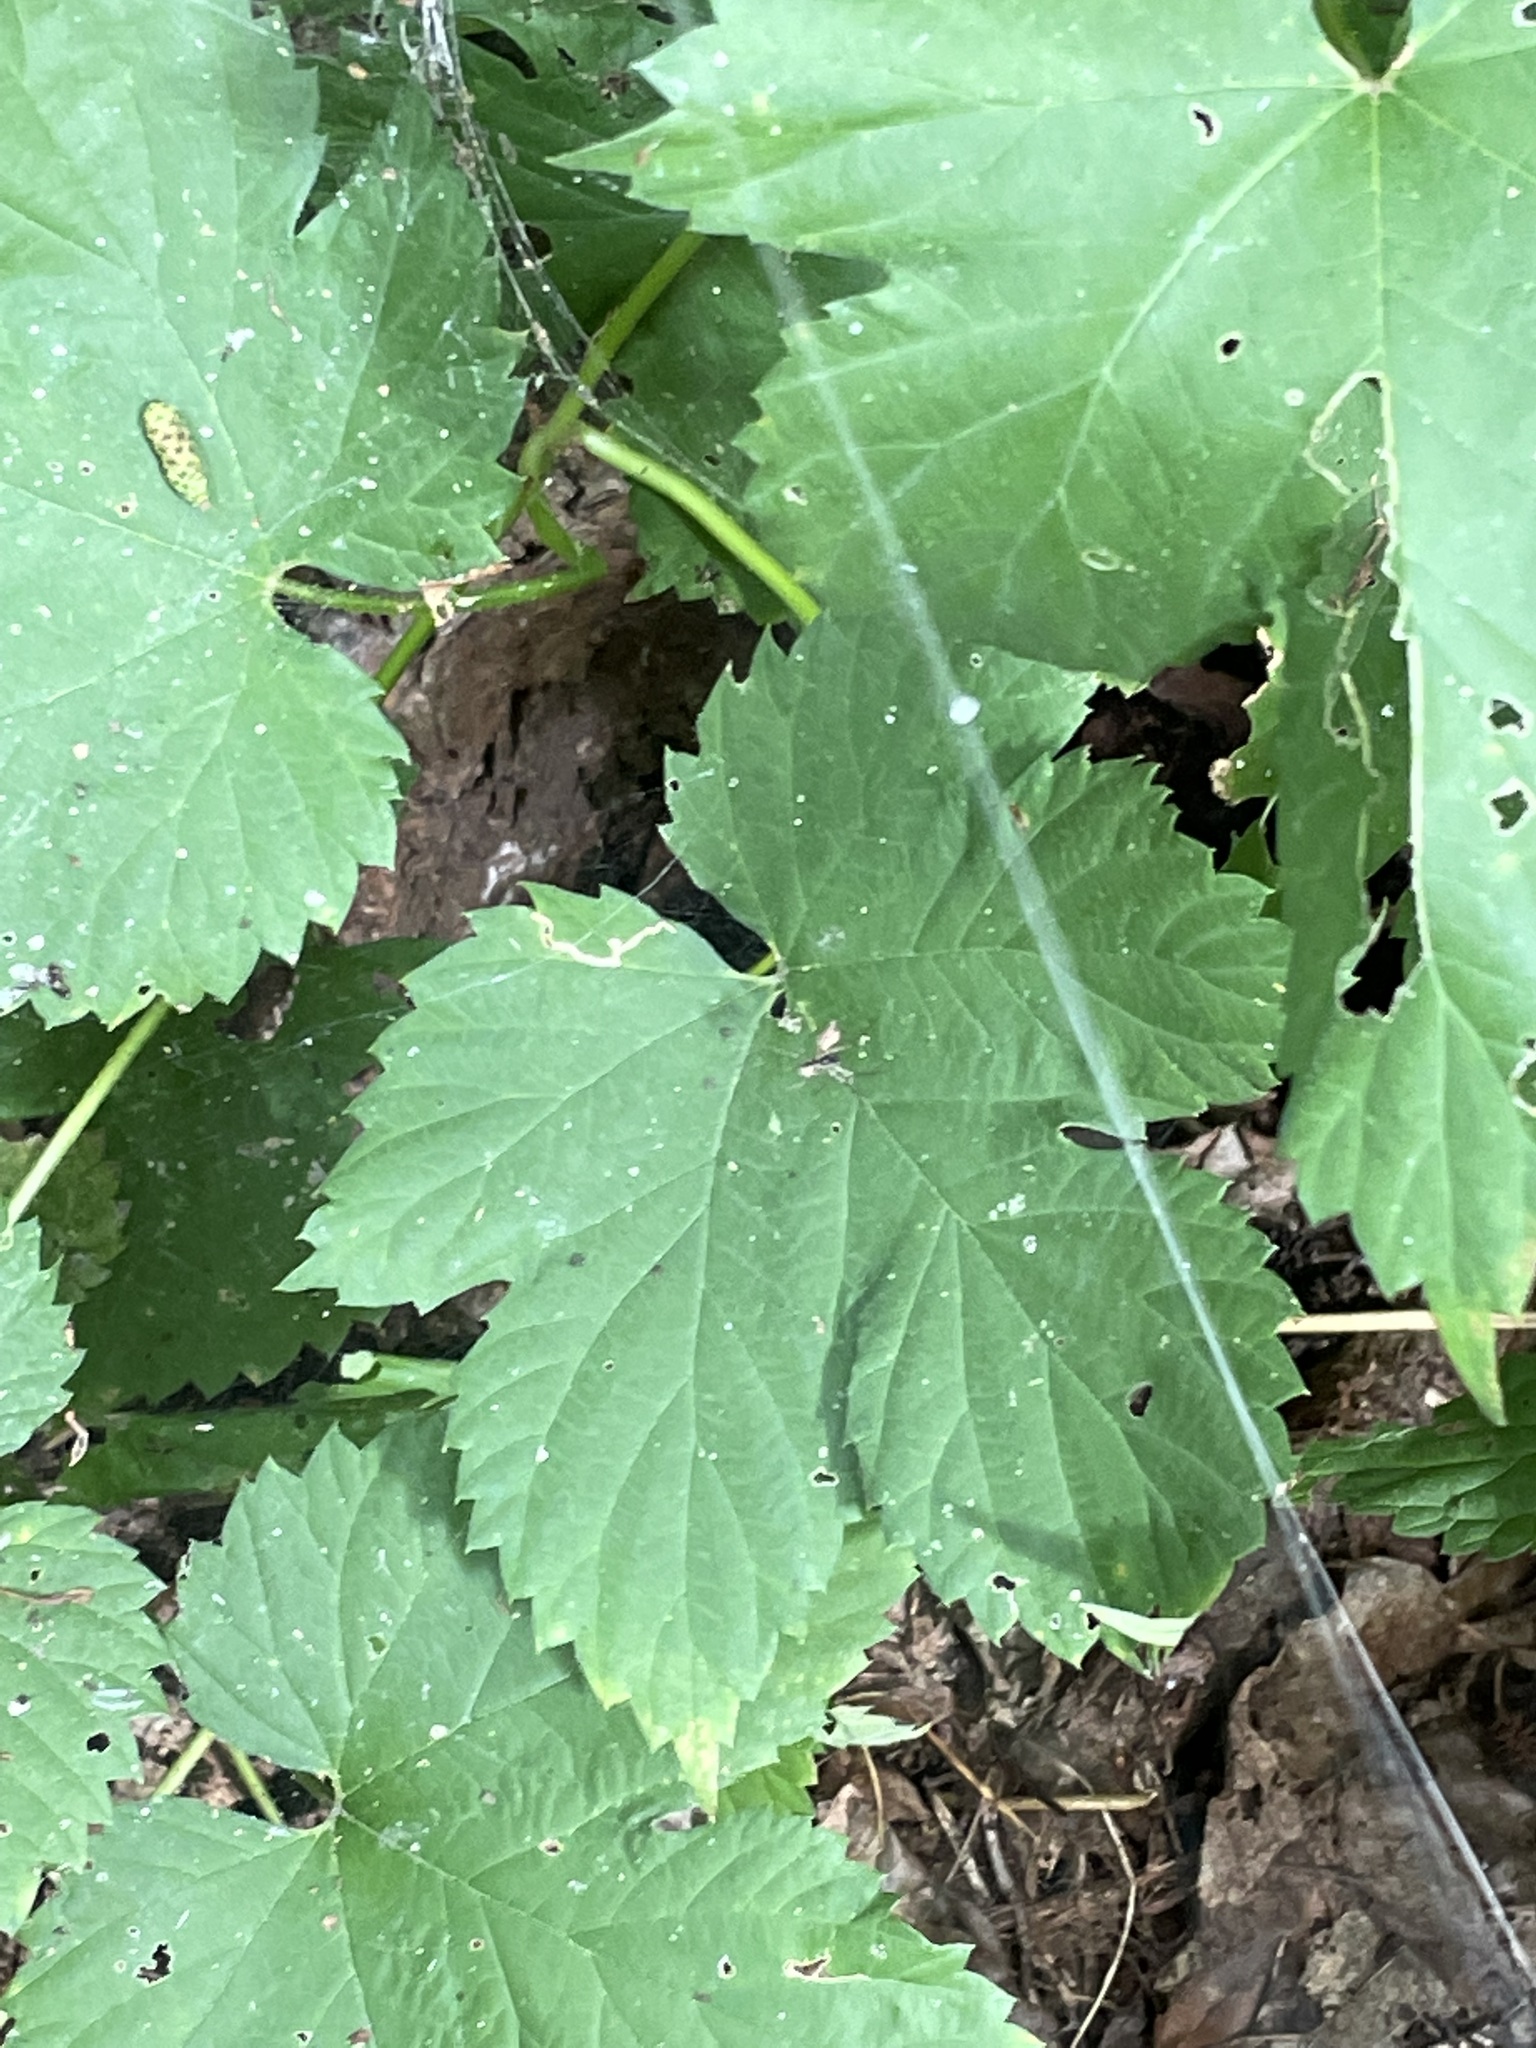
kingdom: Plantae
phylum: Tracheophyta
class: Magnoliopsida
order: Rosales
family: Cannabaceae
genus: Humulus
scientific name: Humulus lupulus
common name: Hop
